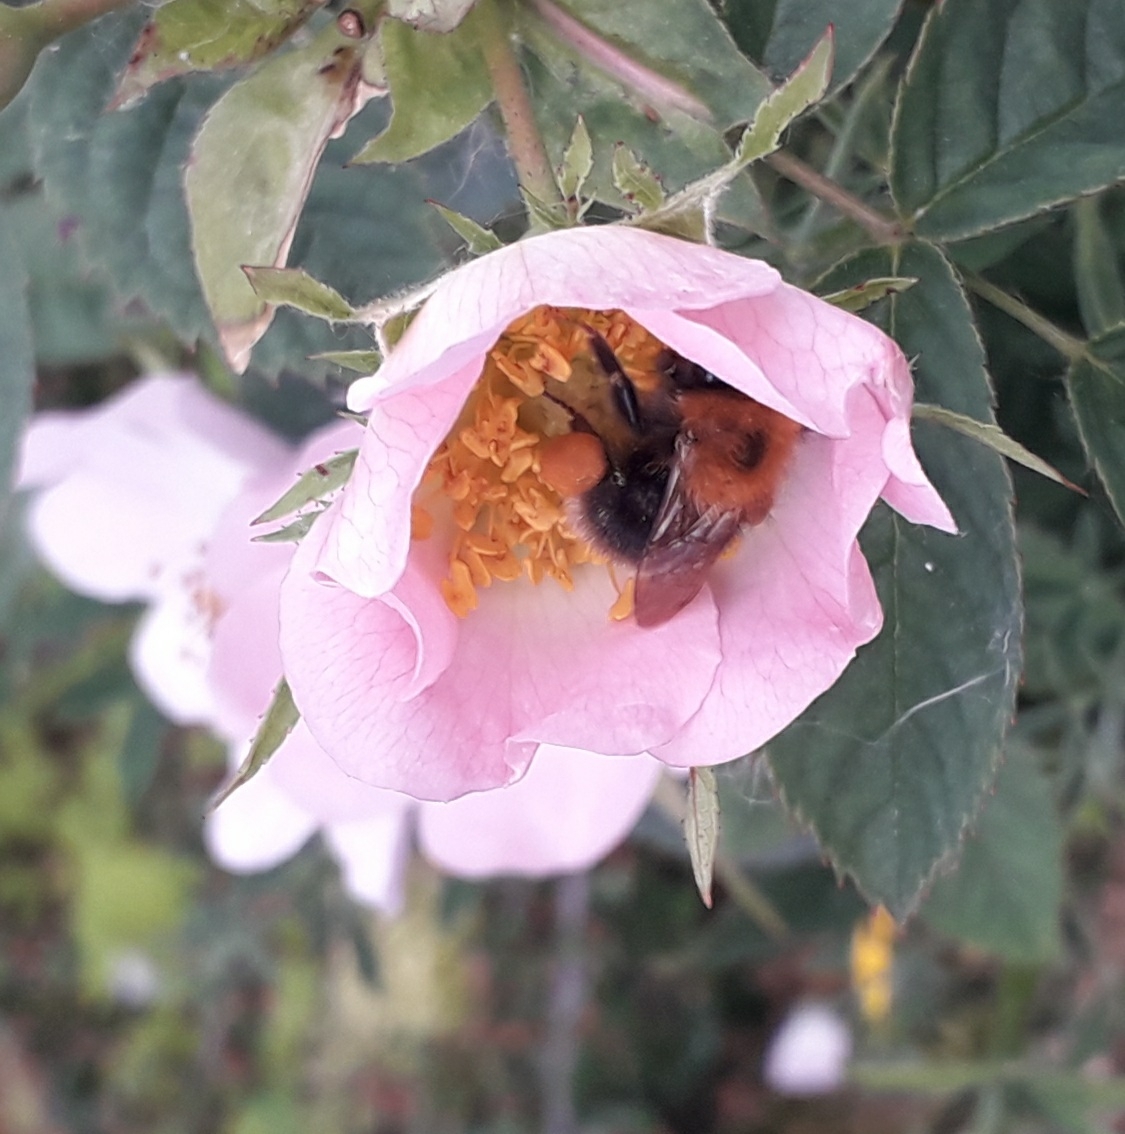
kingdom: Animalia
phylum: Arthropoda
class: Insecta
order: Hymenoptera
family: Apidae
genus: Bombus
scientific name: Bombus hypnorum
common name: New garden bumblebee
